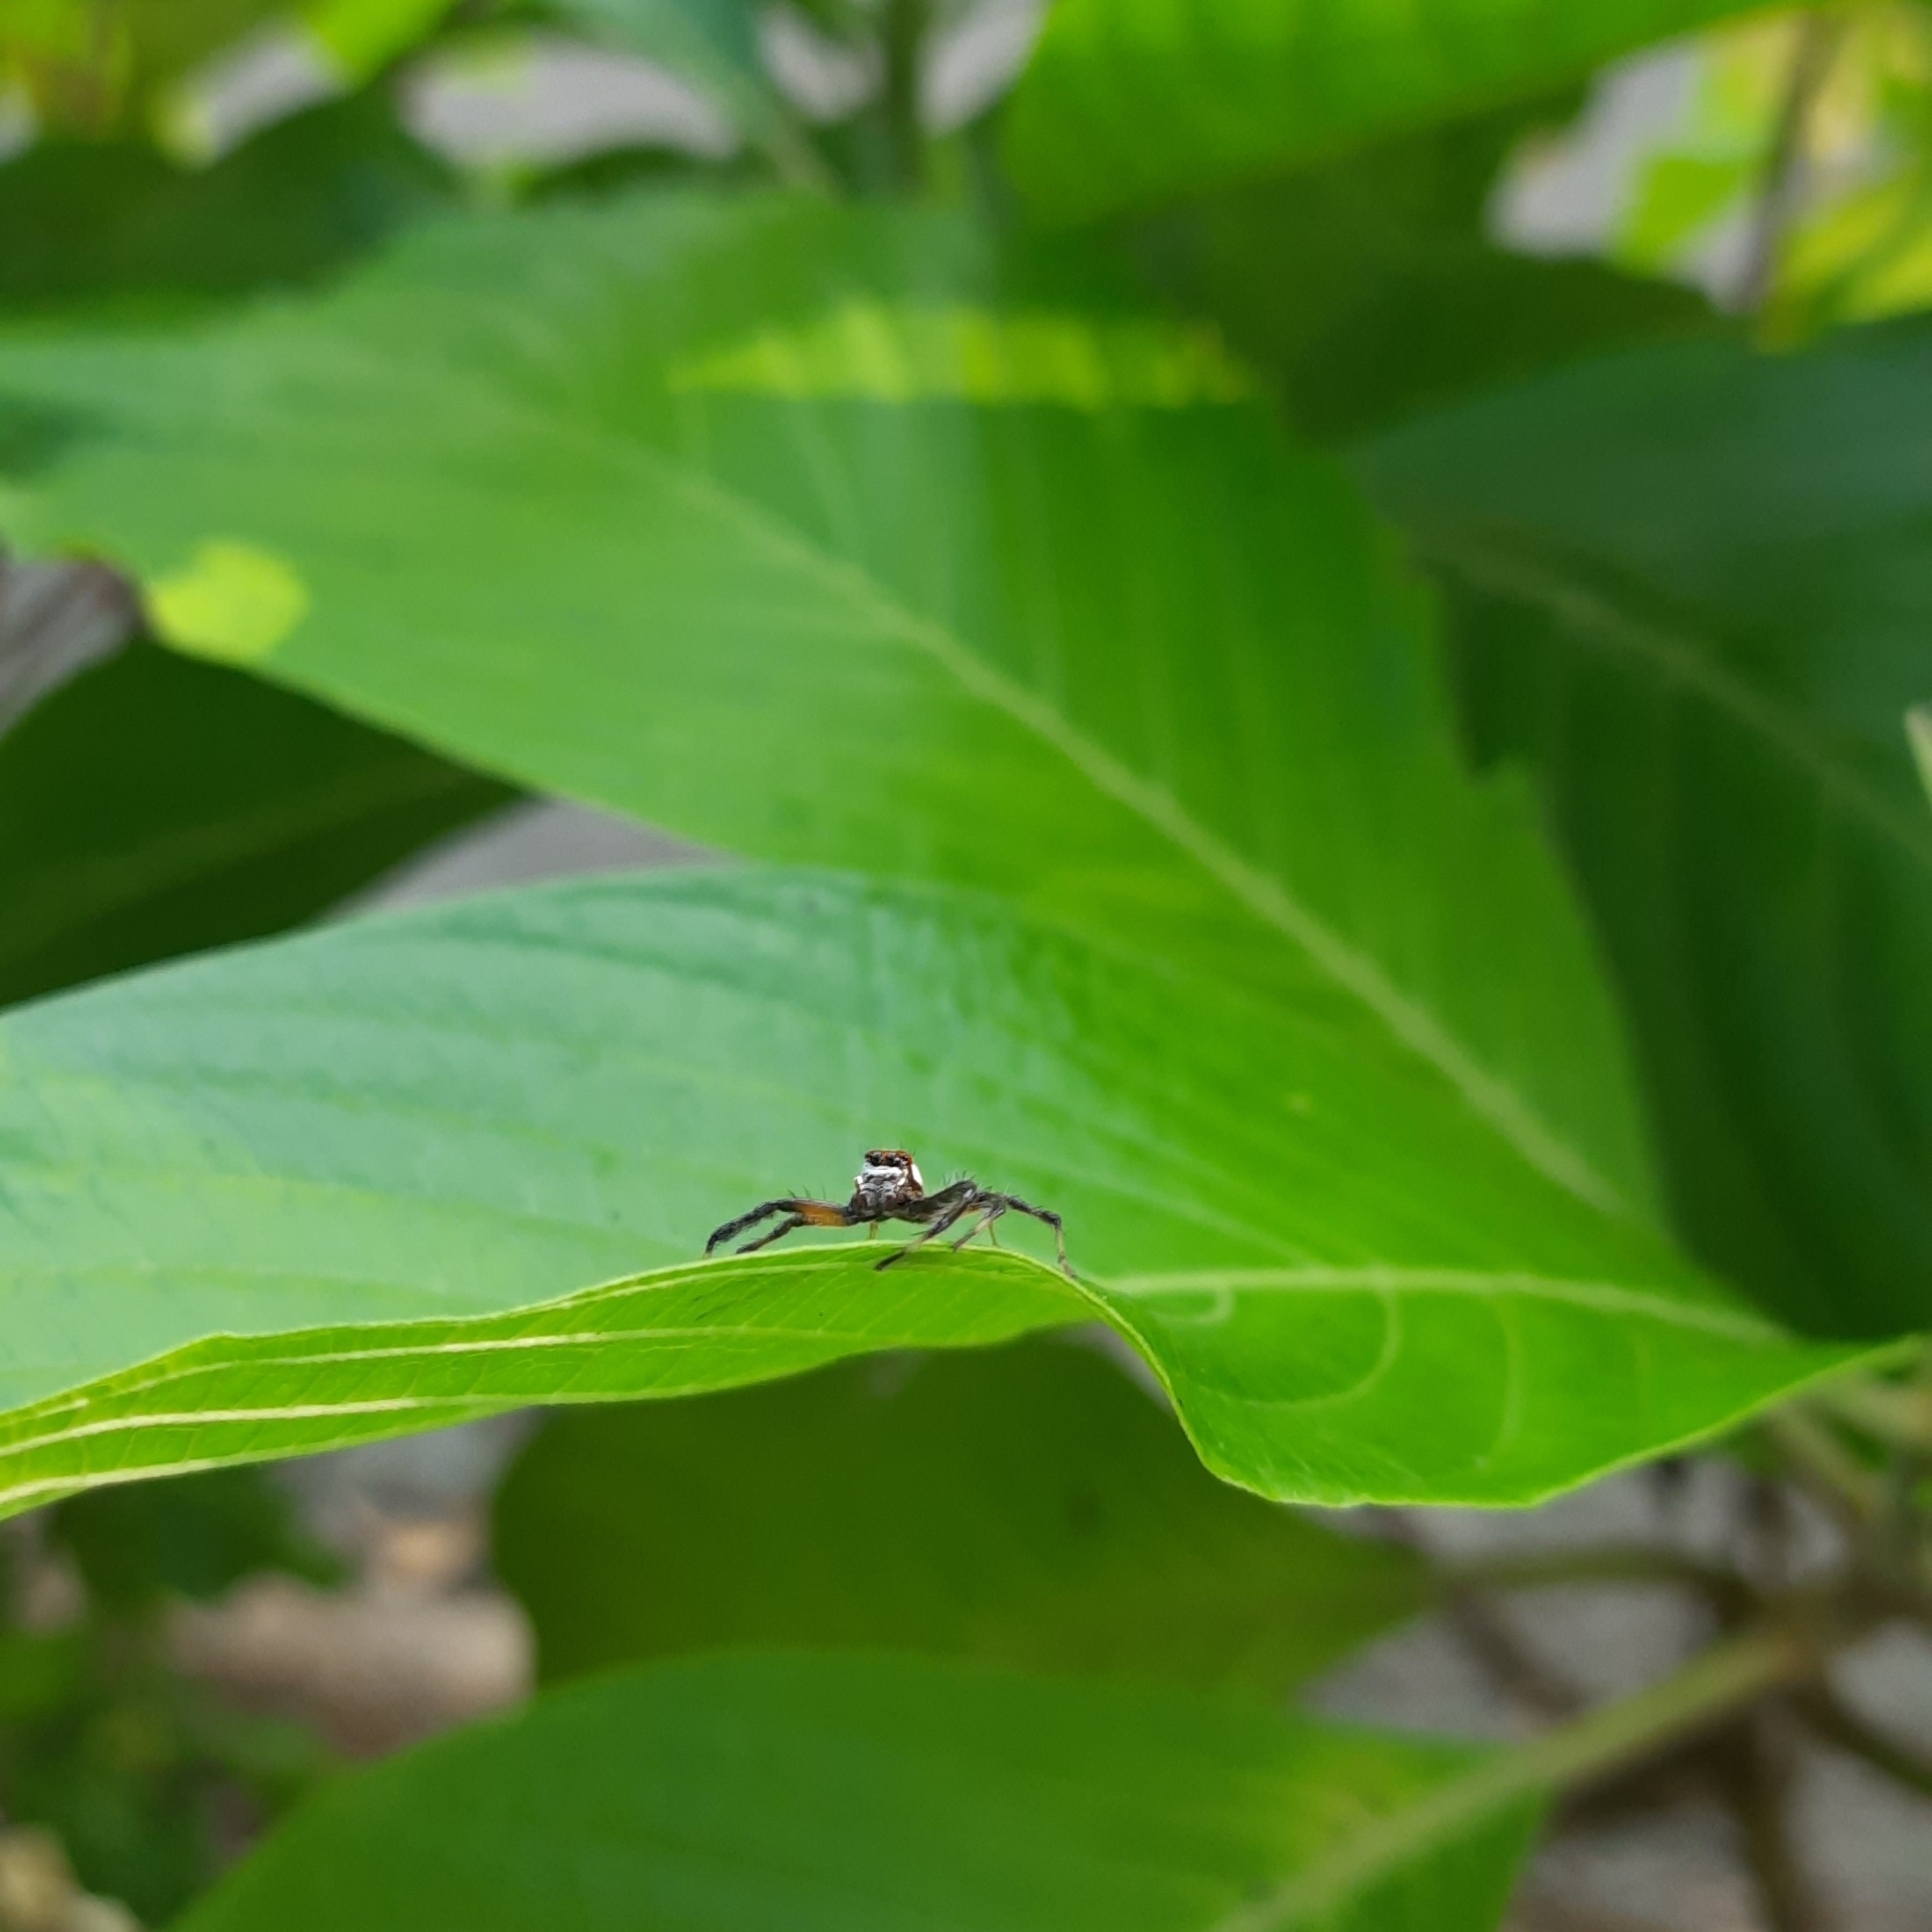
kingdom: Animalia
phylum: Arthropoda
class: Arachnida
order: Araneae
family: Salticidae
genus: Telamonia
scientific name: Telamonia dimidiata
